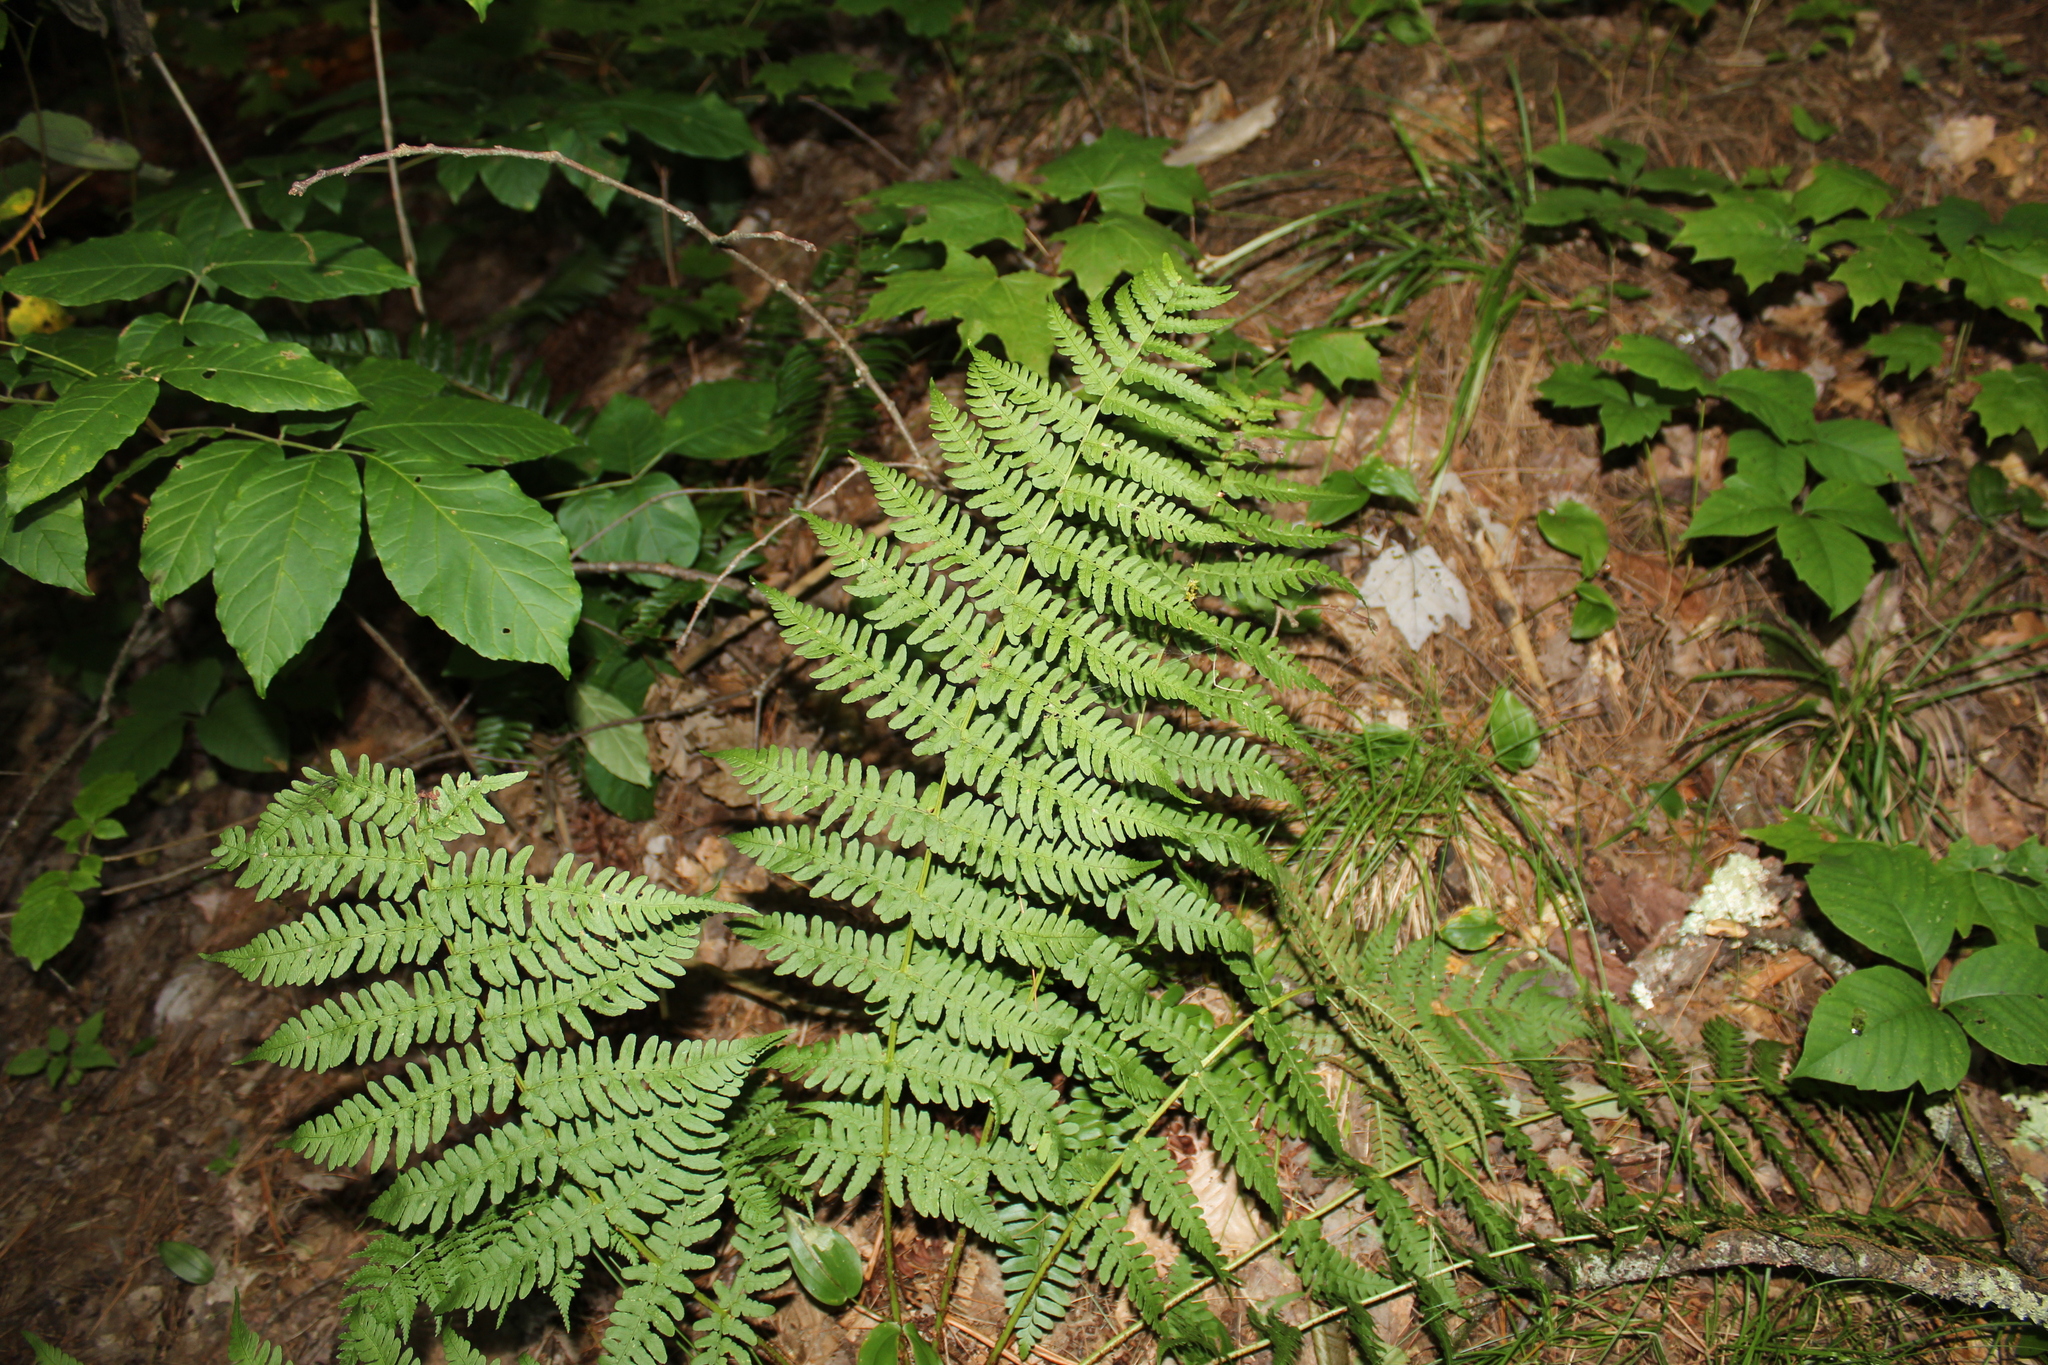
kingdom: Plantae
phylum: Tracheophyta
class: Polypodiopsida
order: Polypodiales
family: Dryopteridaceae
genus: Dryopteris
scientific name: Dryopteris marginalis
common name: Marginal wood fern
